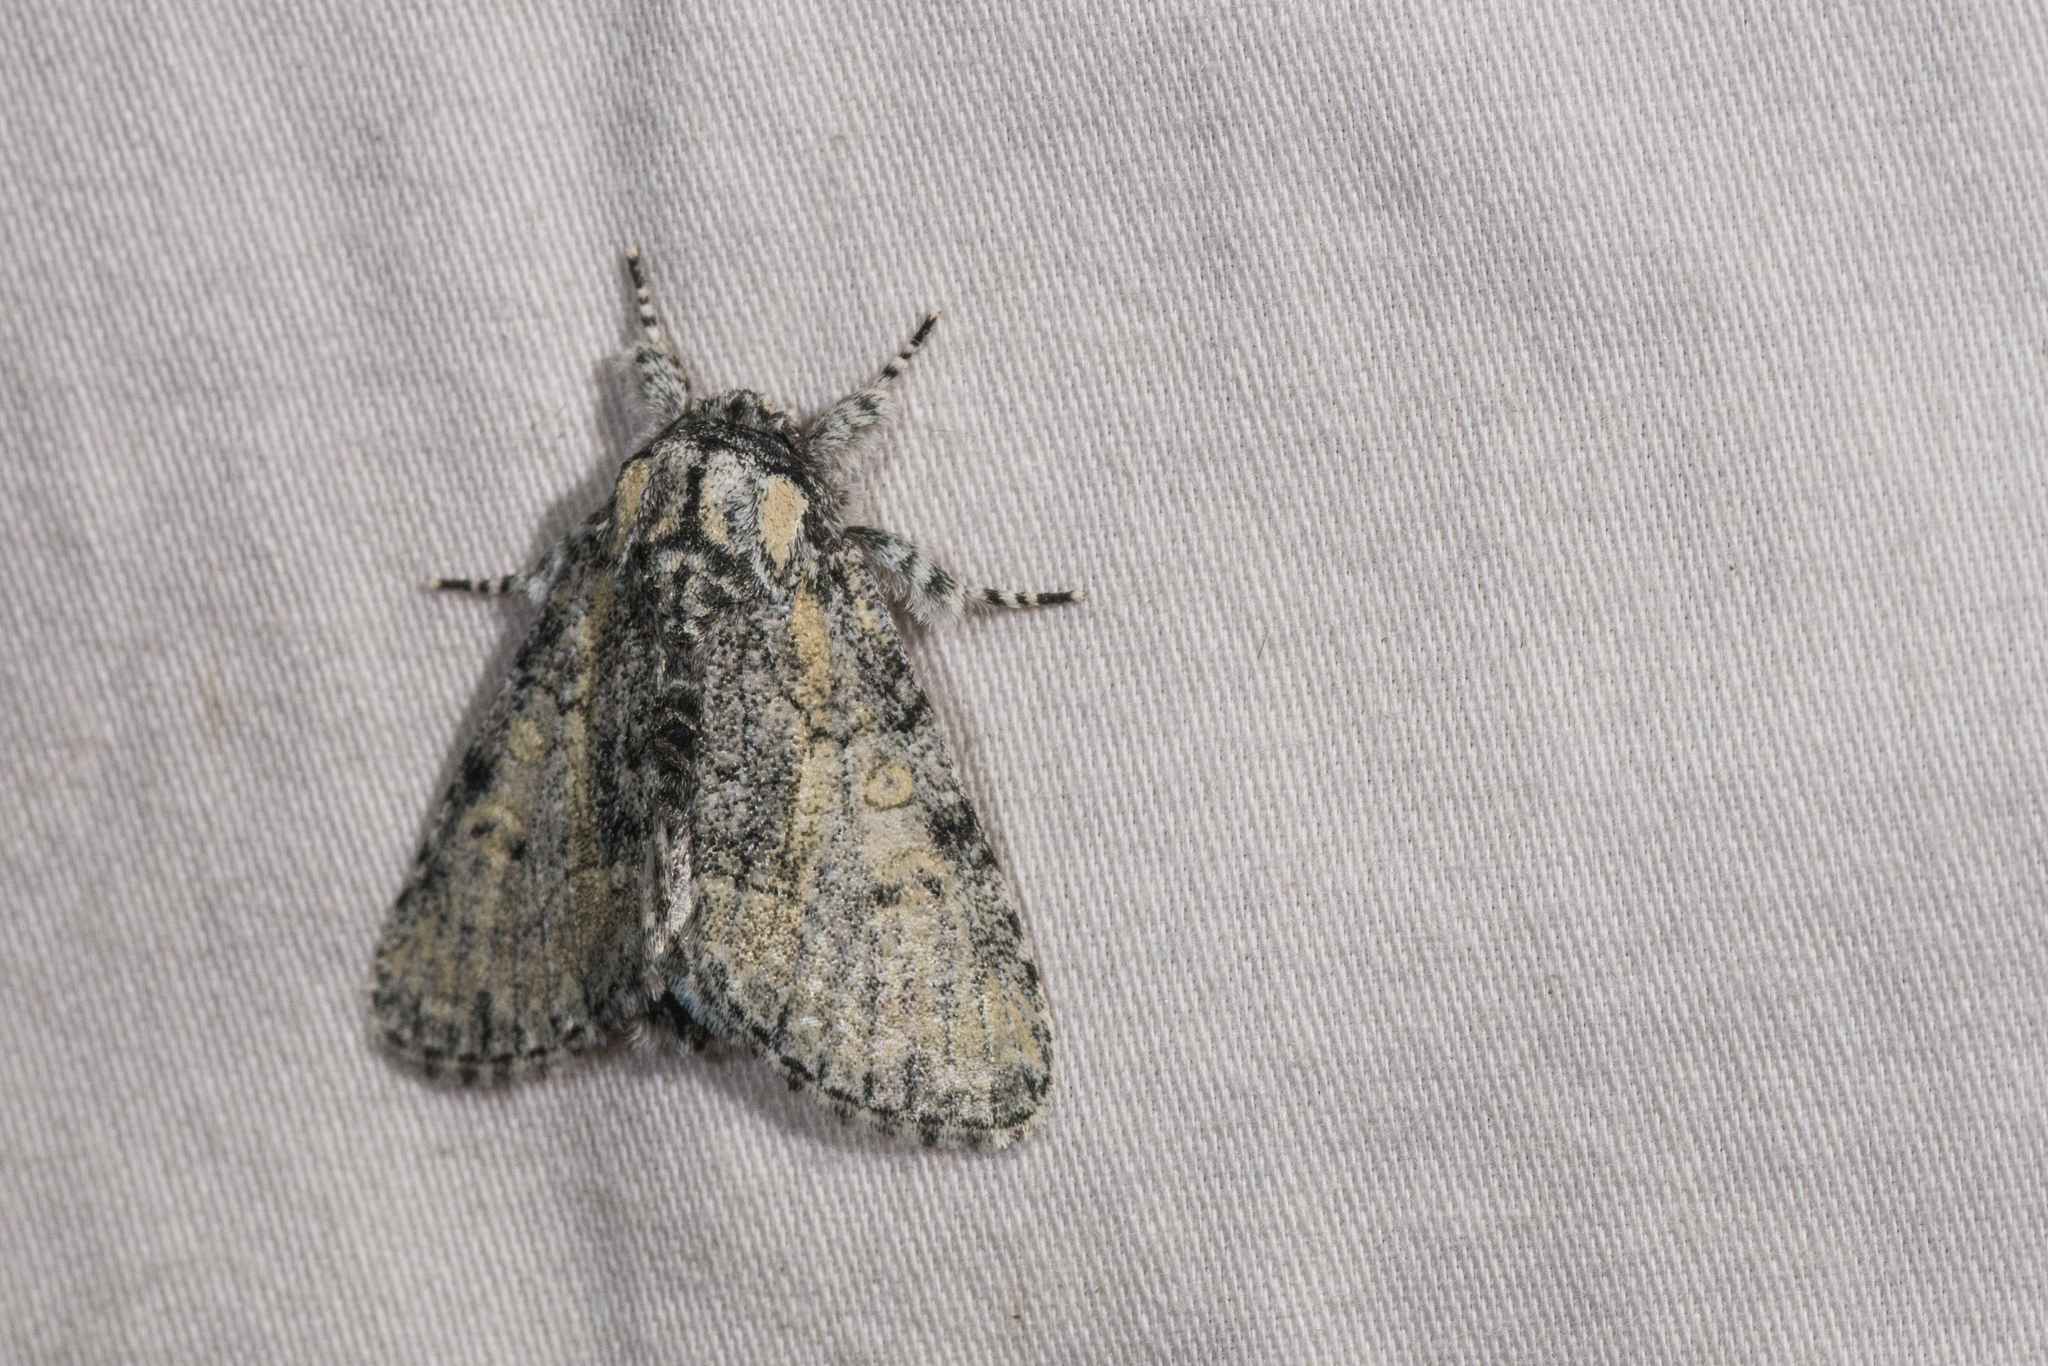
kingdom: Animalia
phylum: Arthropoda
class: Insecta
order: Lepidoptera
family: Noctuidae
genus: Raphia
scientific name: Raphia frater
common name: Brother
